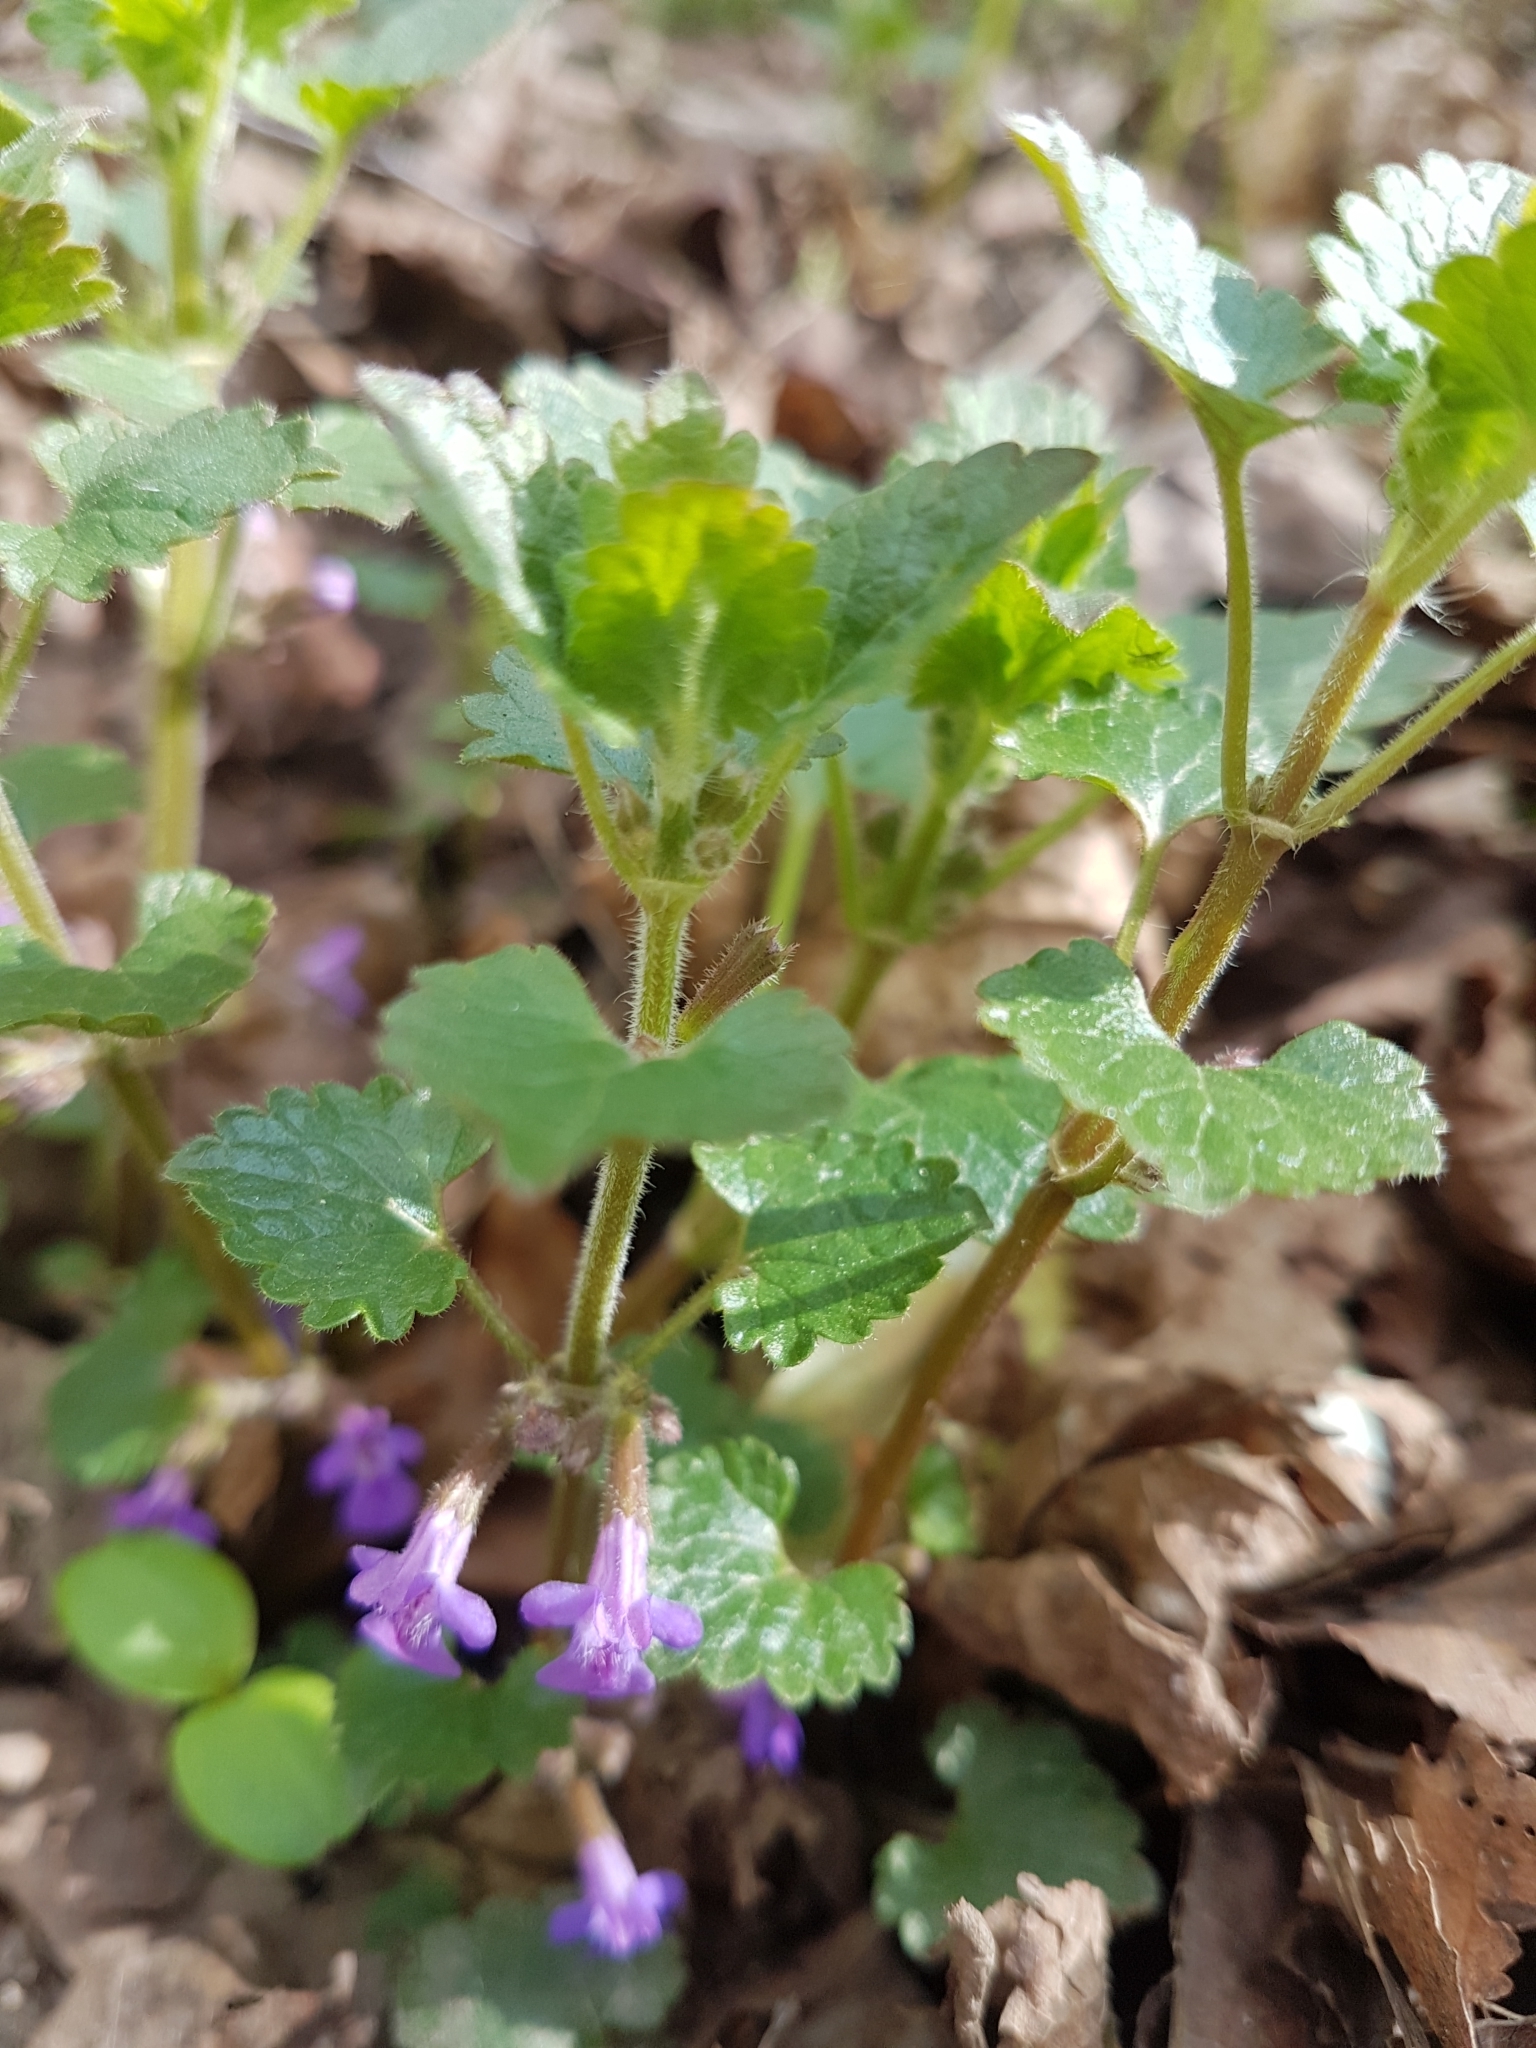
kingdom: Plantae
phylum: Tracheophyta
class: Magnoliopsida
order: Lamiales
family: Lamiaceae
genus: Glechoma
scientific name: Glechoma hederacea
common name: Ground ivy
